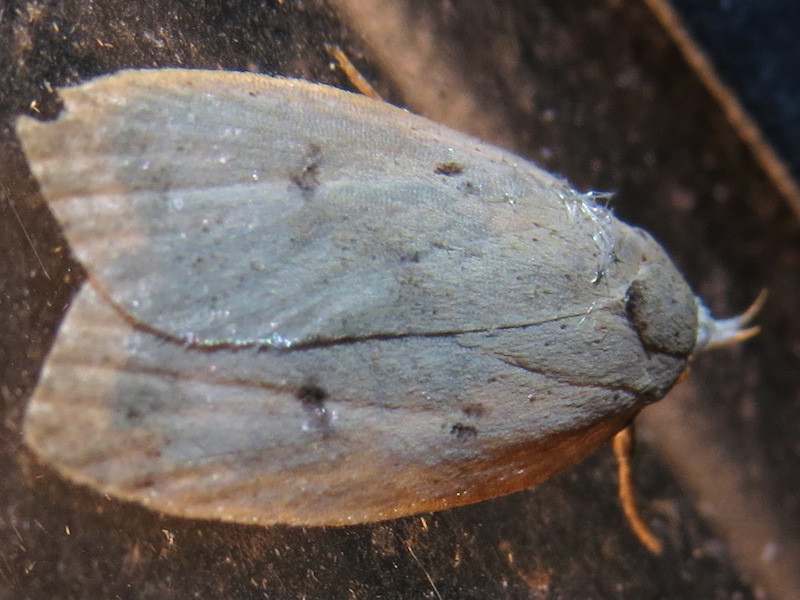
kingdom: Animalia
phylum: Arthropoda
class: Insecta
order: Lepidoptera
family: Peleopodidae
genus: Machimia
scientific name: Machimia tentoriferella
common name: Gold-striped leaftier moth
